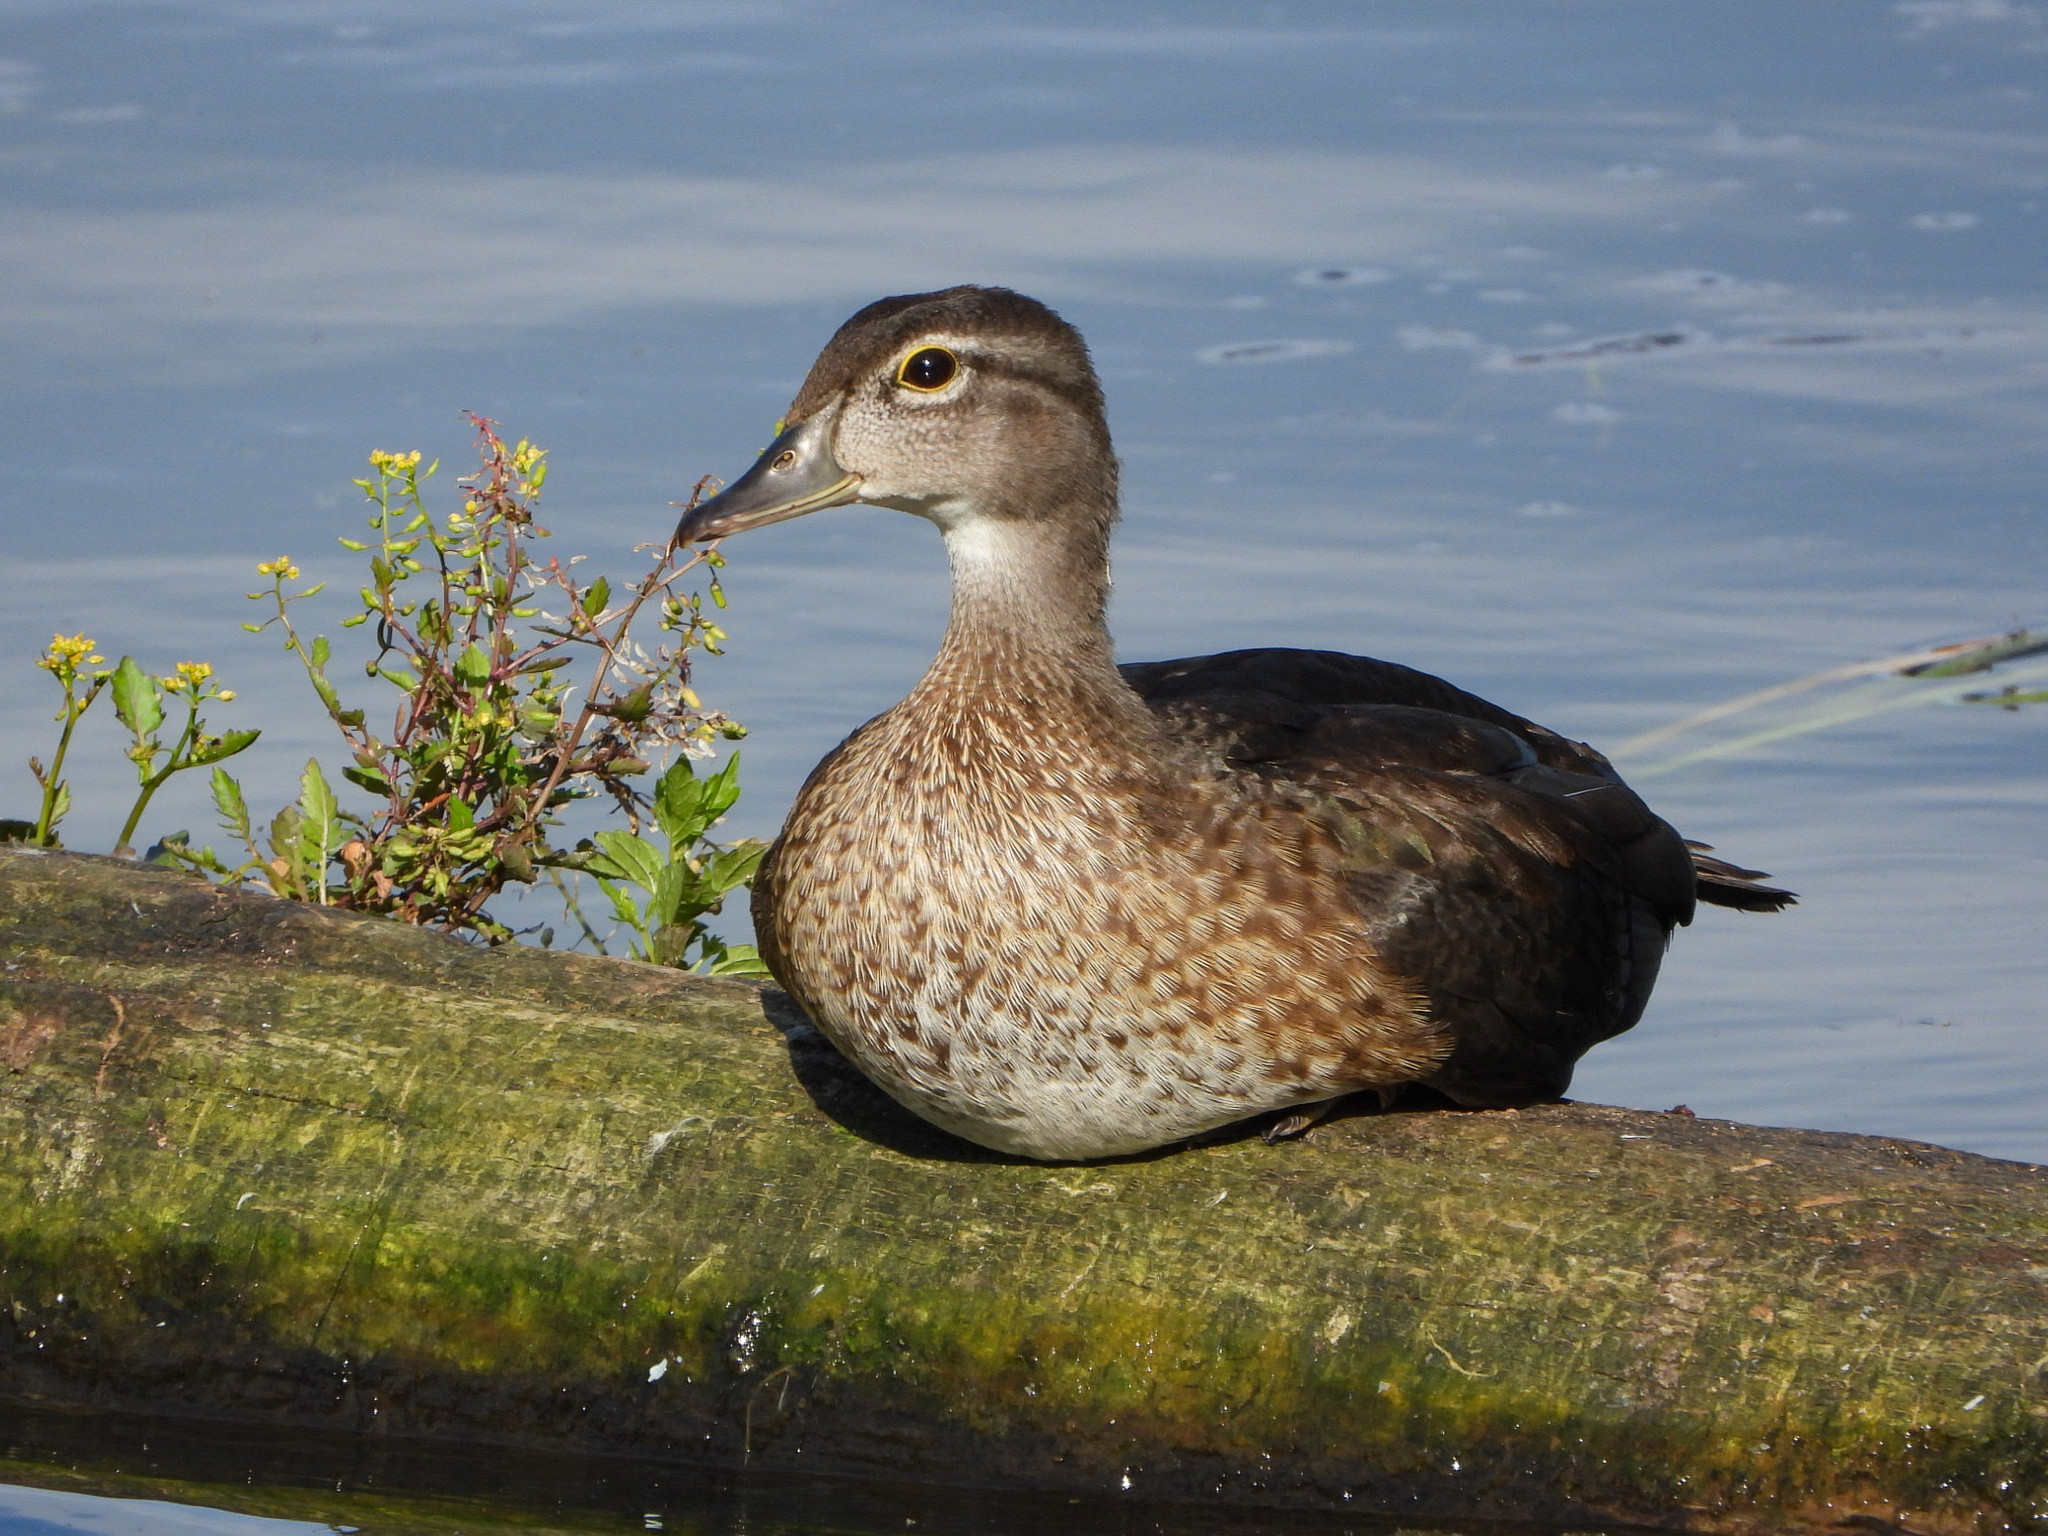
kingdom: Animalia
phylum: Chordata
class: Aves
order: Anseriformes
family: Anatidae
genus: Aix
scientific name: Aix sponsa
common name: Wood duck
